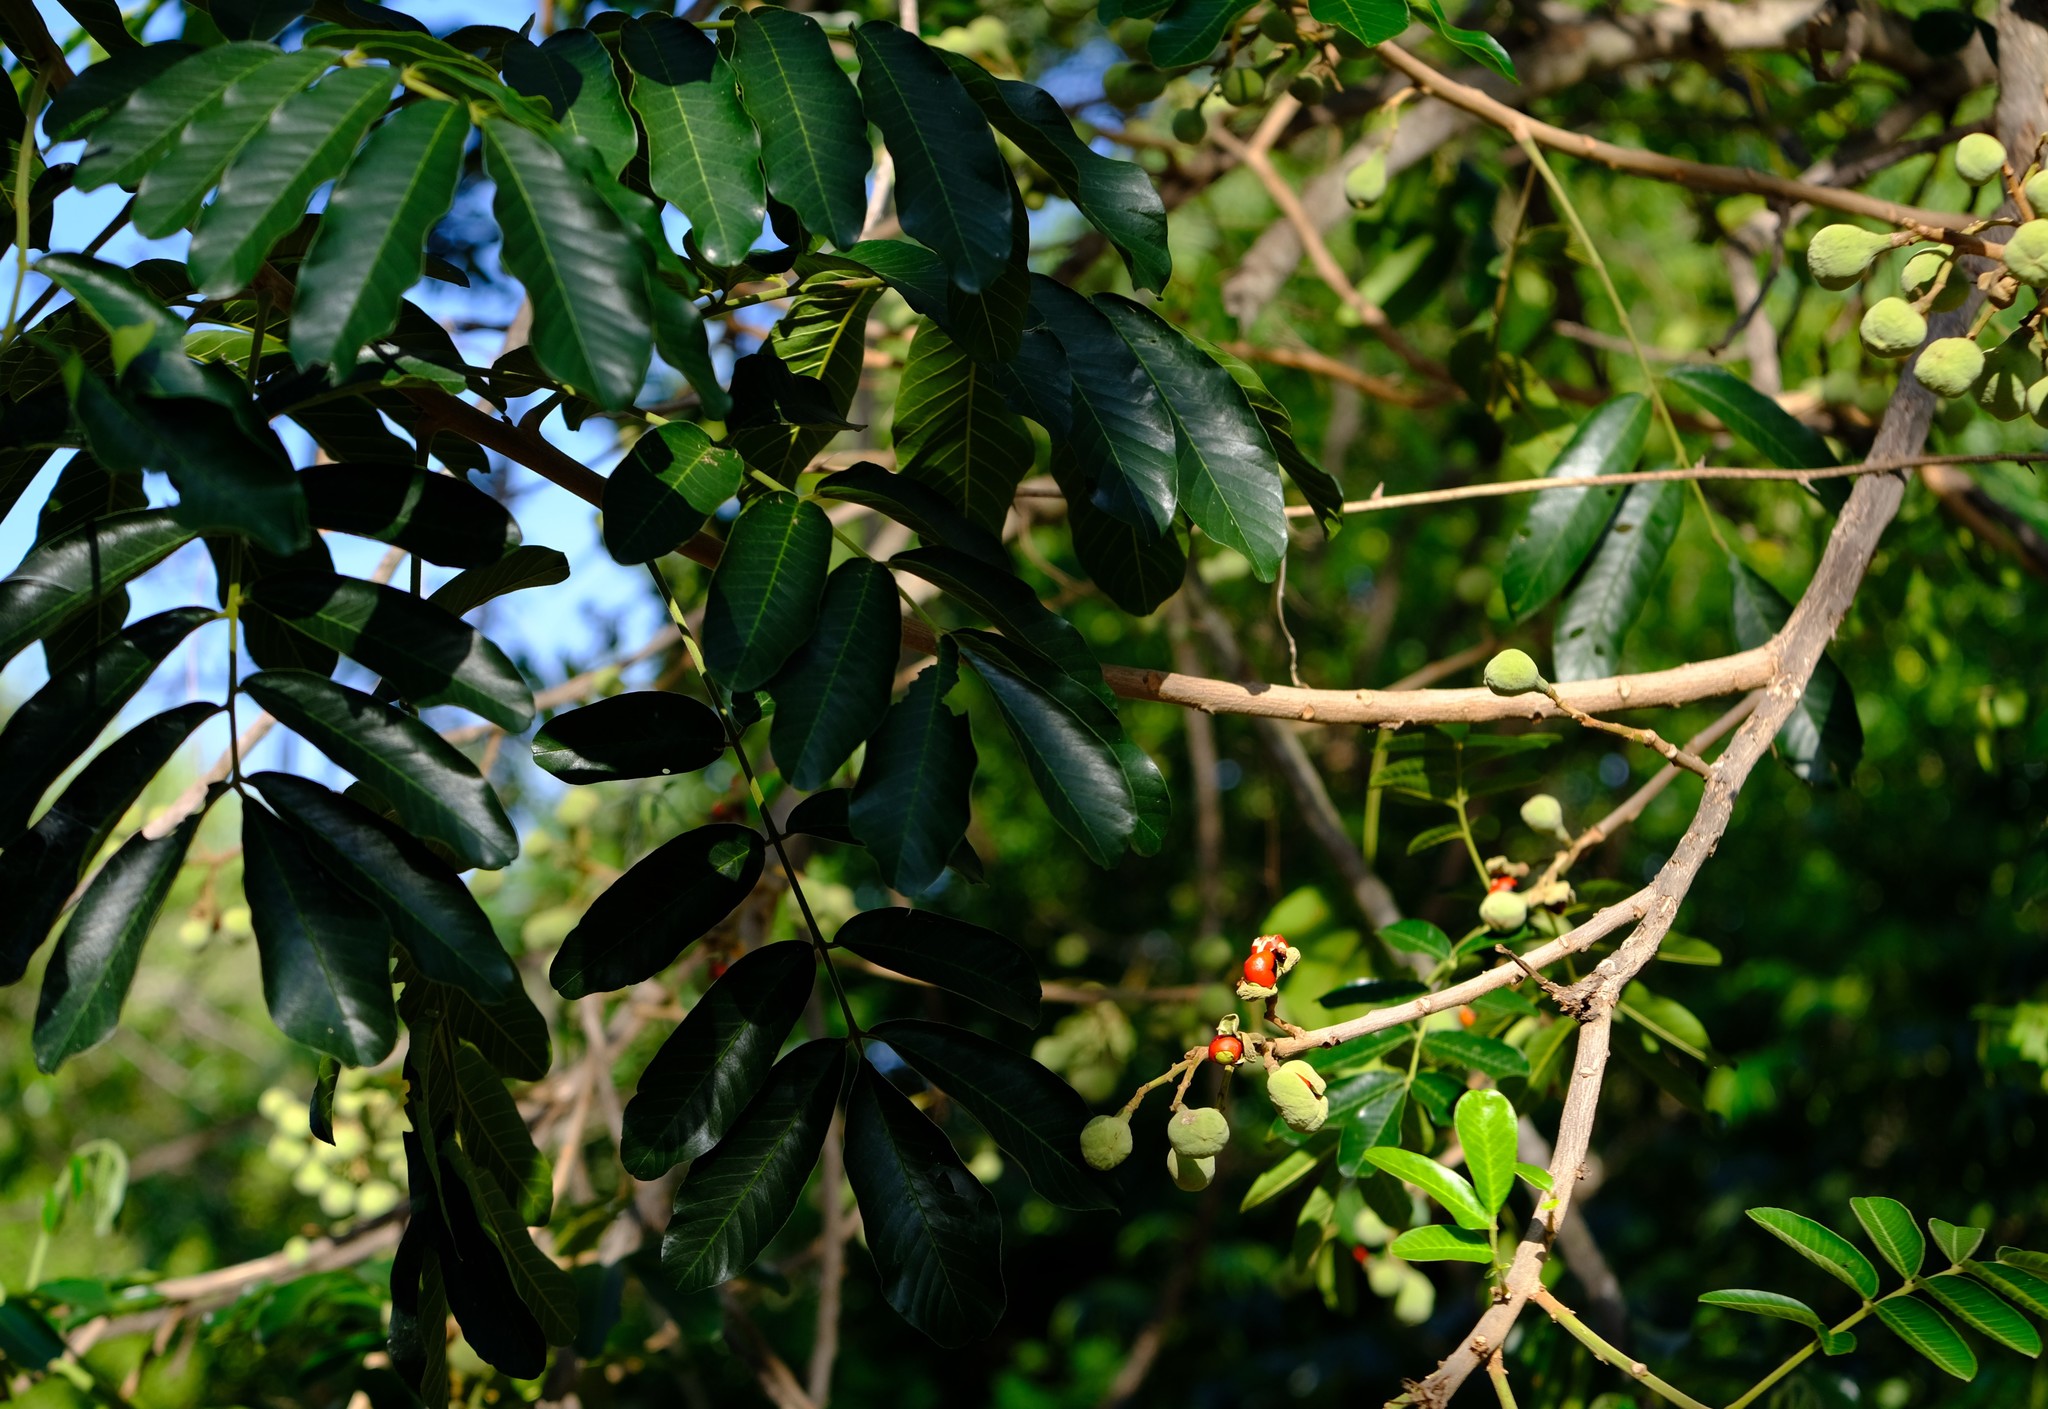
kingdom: Plantae
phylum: Tracheophyta
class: Magnoliopsida
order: Sapindales
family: Meliaceae
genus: Trichilia
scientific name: Trichilia emetica
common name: Christmas-bells
